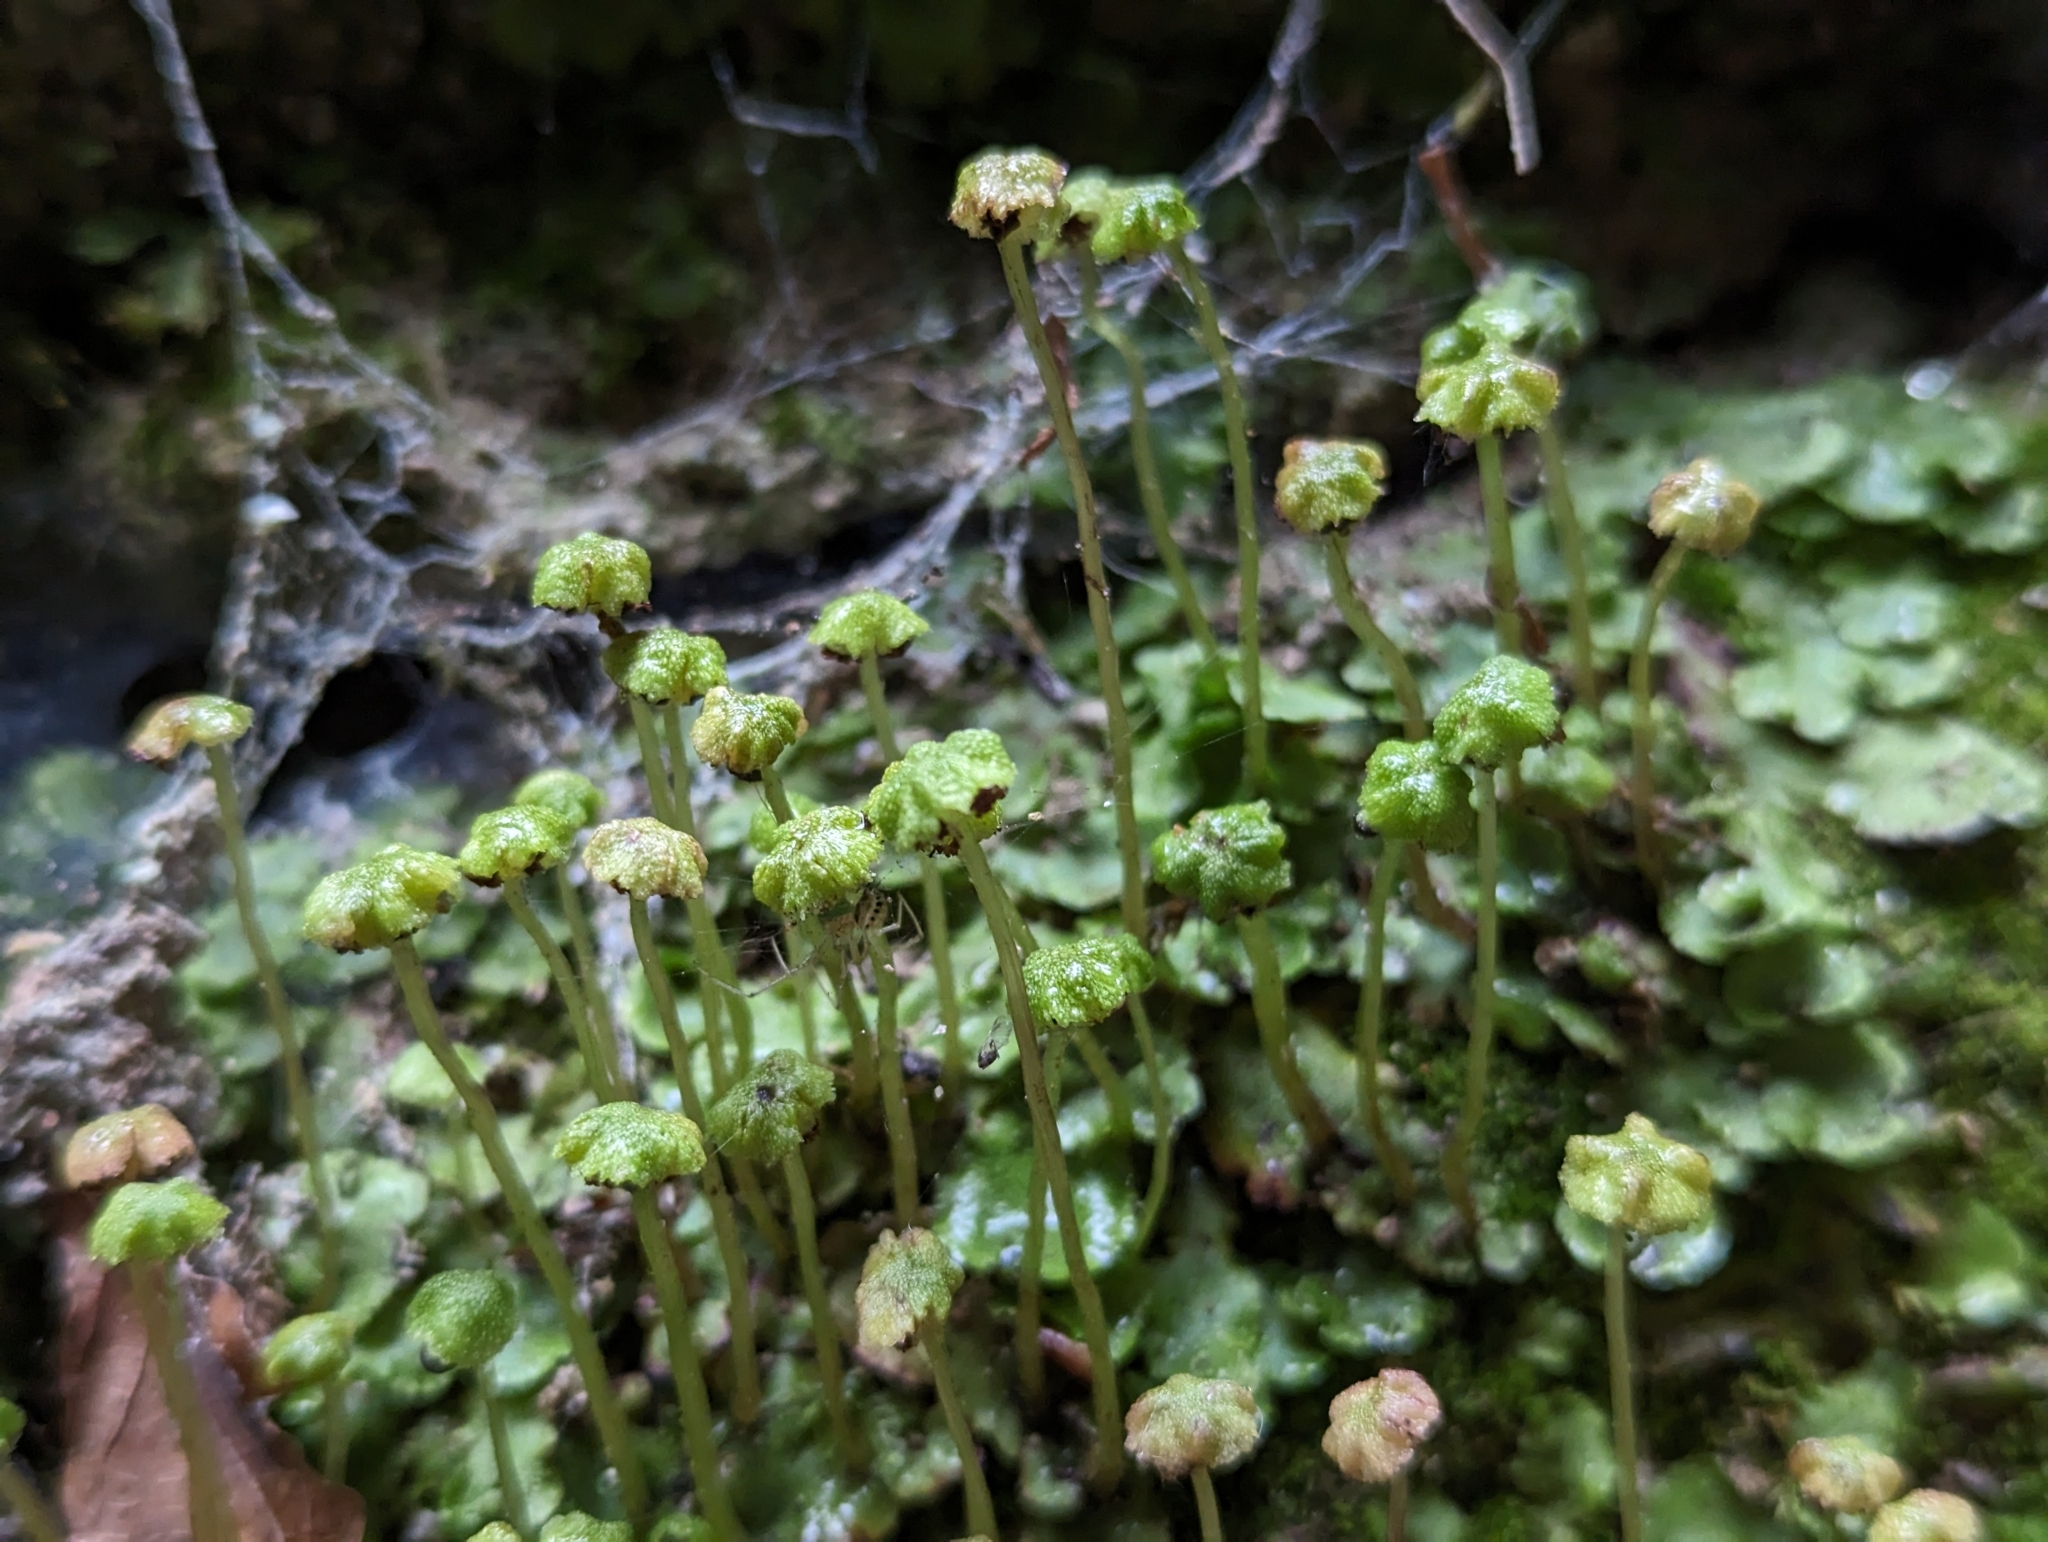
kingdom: Plantae
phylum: Marchantiophyta
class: Marchantiopsida
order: Marchantiales
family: Marchantiaceae
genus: Marchantia
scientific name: Marchantia quadrata
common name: Narrow mushroom-headed liverwort
